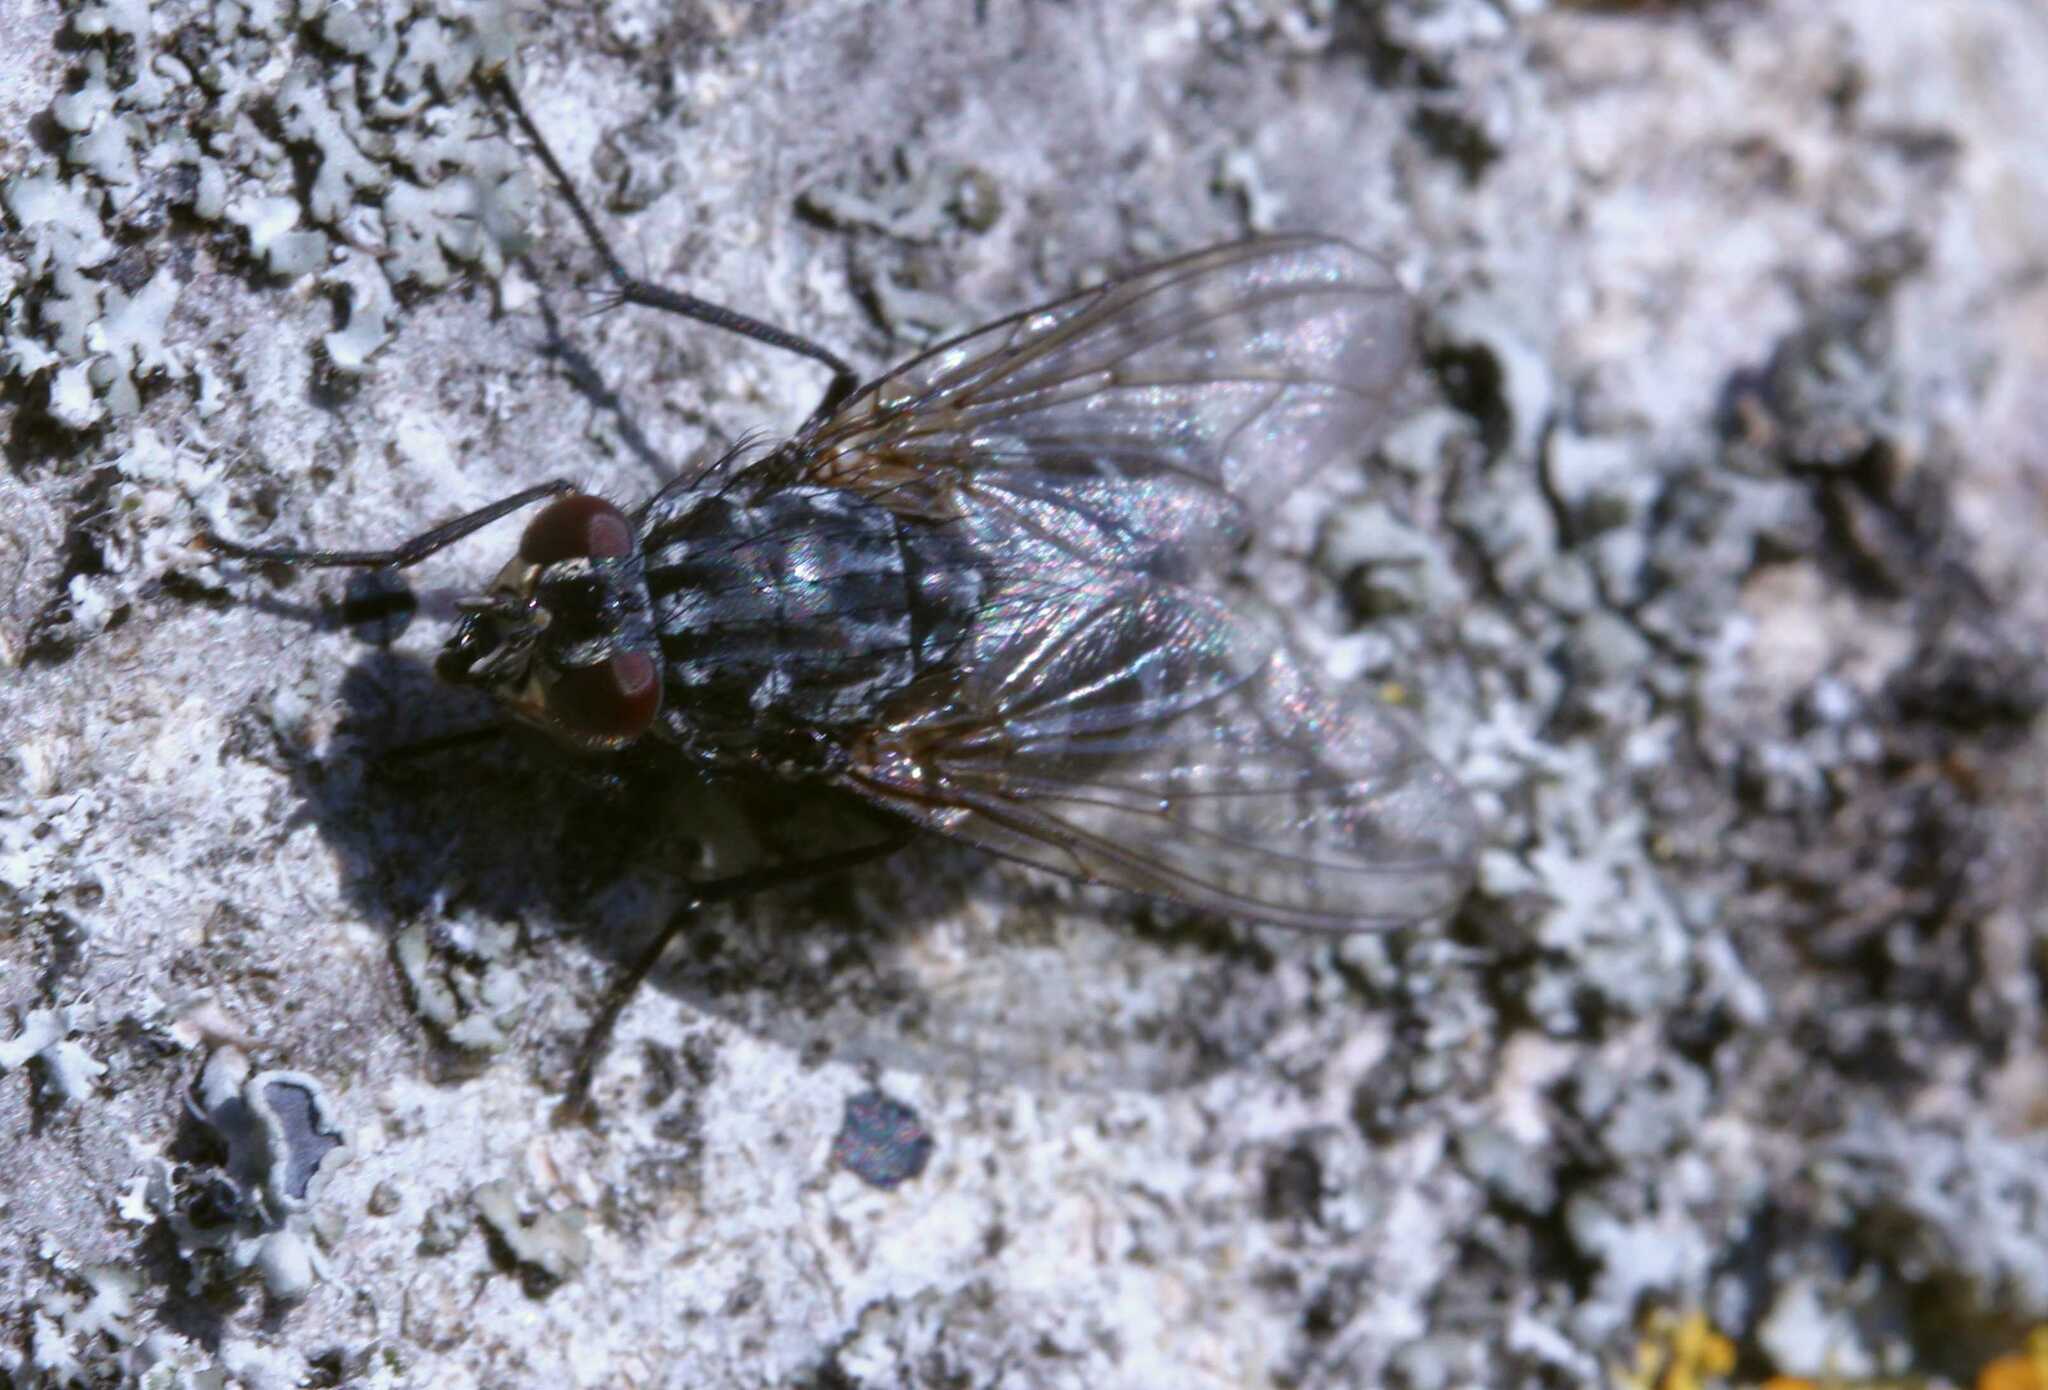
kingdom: Animalia
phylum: Arthropoda
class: Insecta
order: Diptera
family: Muscidae
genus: Polietes
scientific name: Polietes
